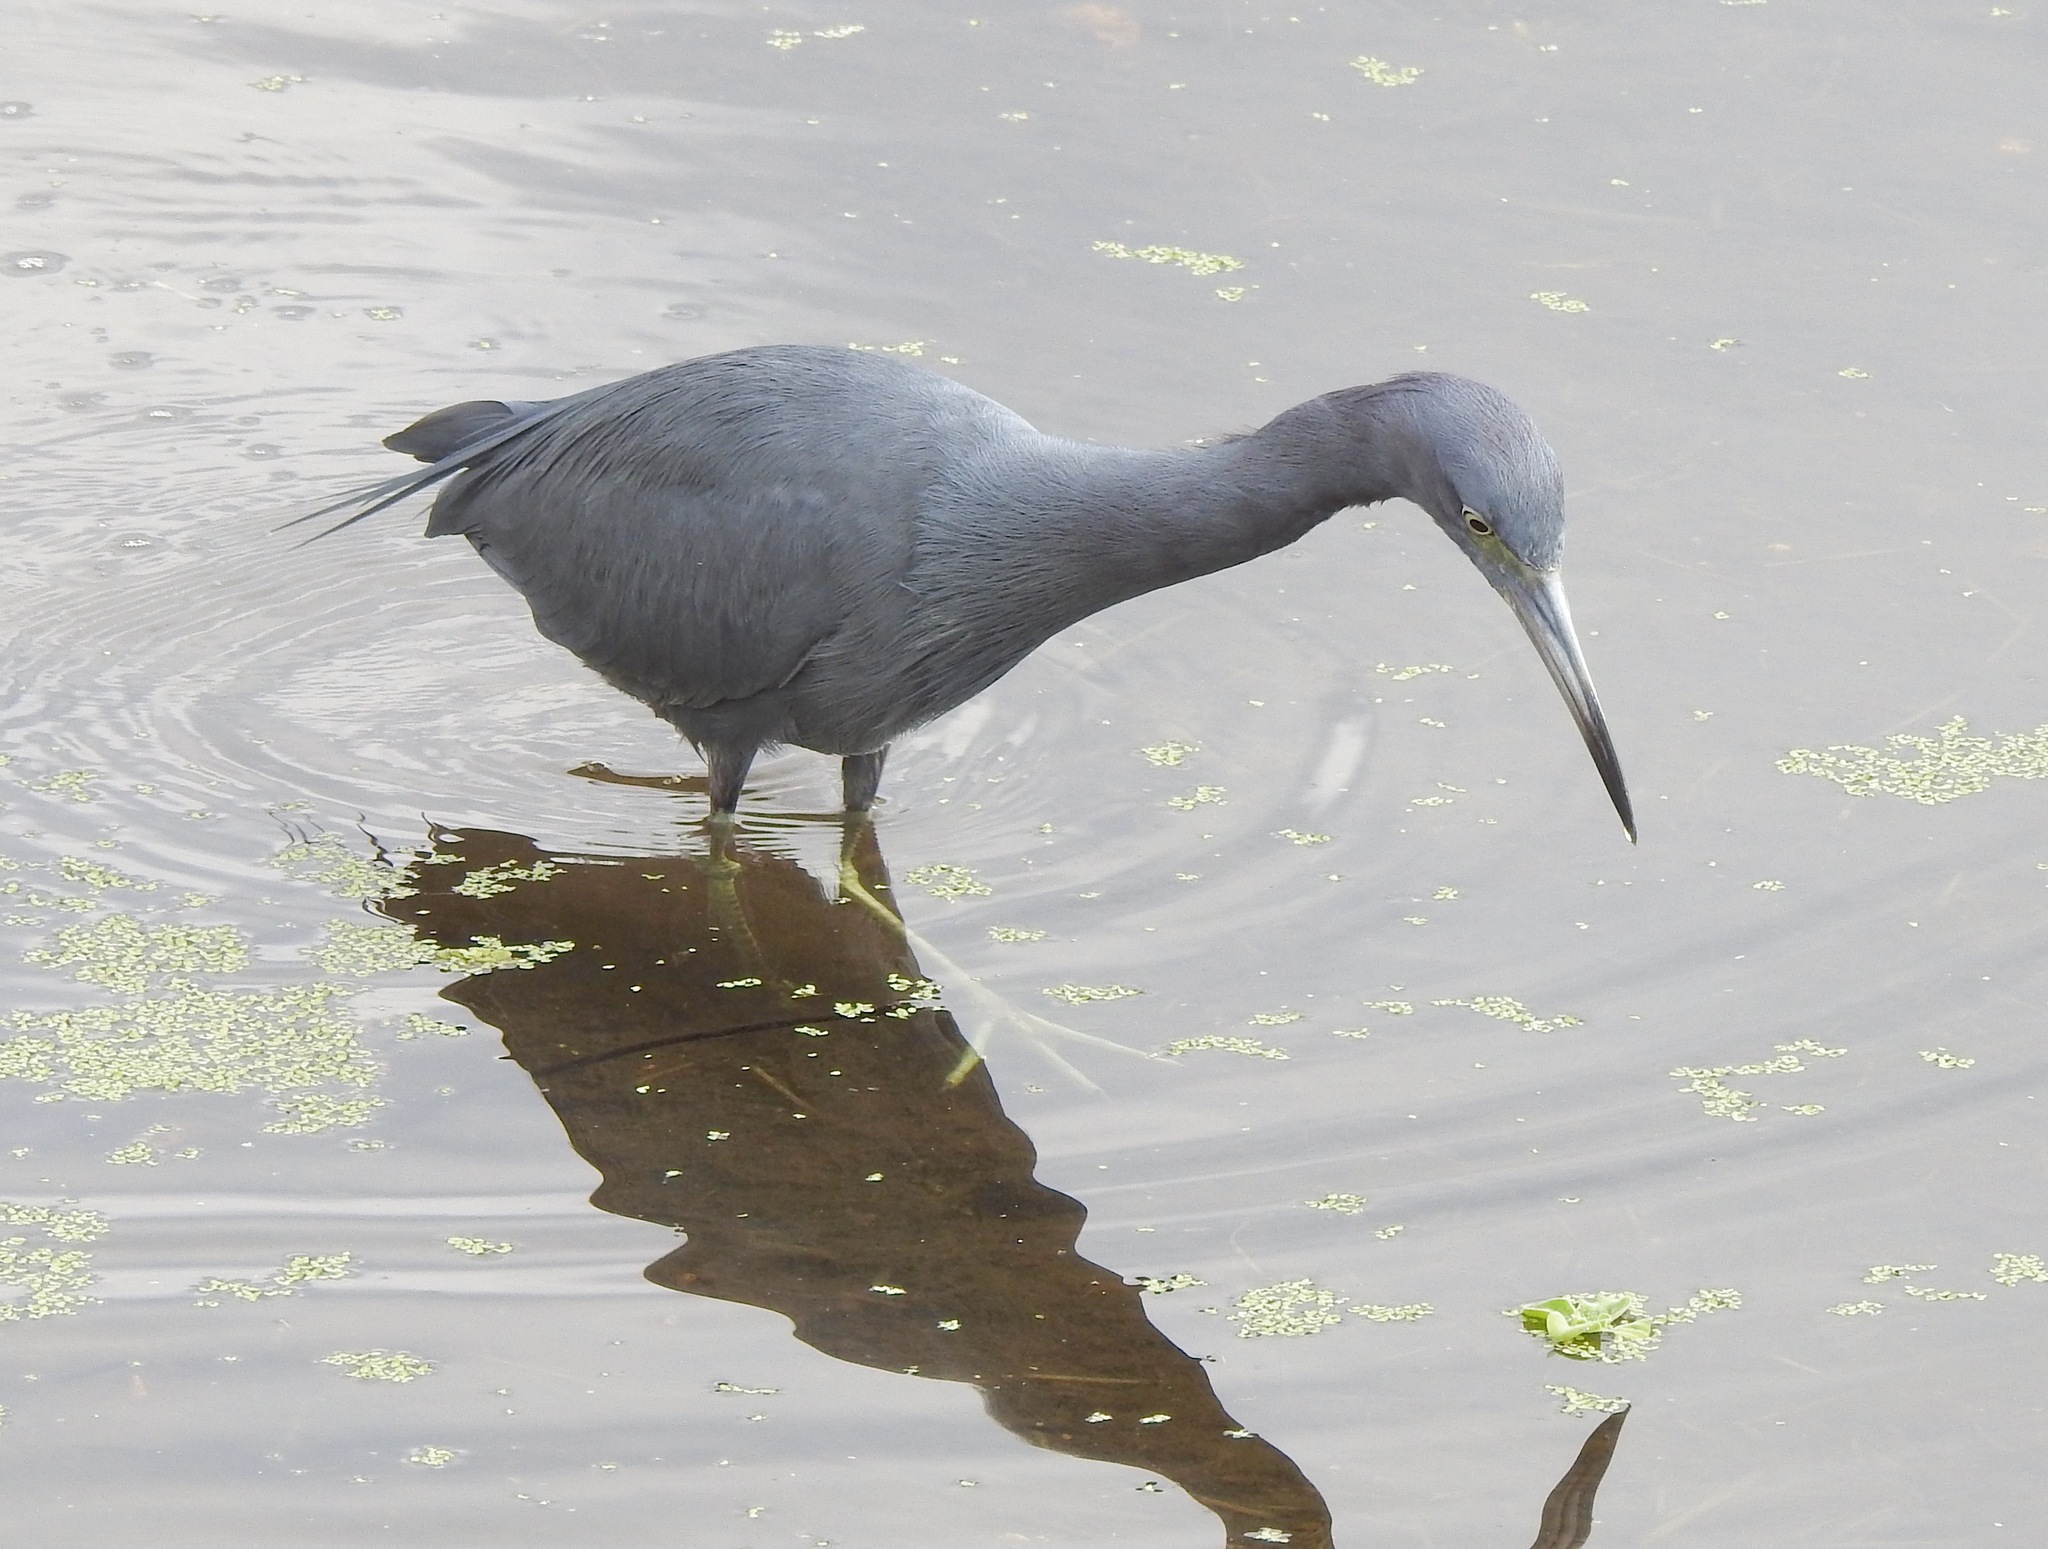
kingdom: Animalia
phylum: Chordata
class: Aves
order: Pelecaniformes
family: Ardeidae
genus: Egretta
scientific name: Egretta caerulea
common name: Little blue heron
